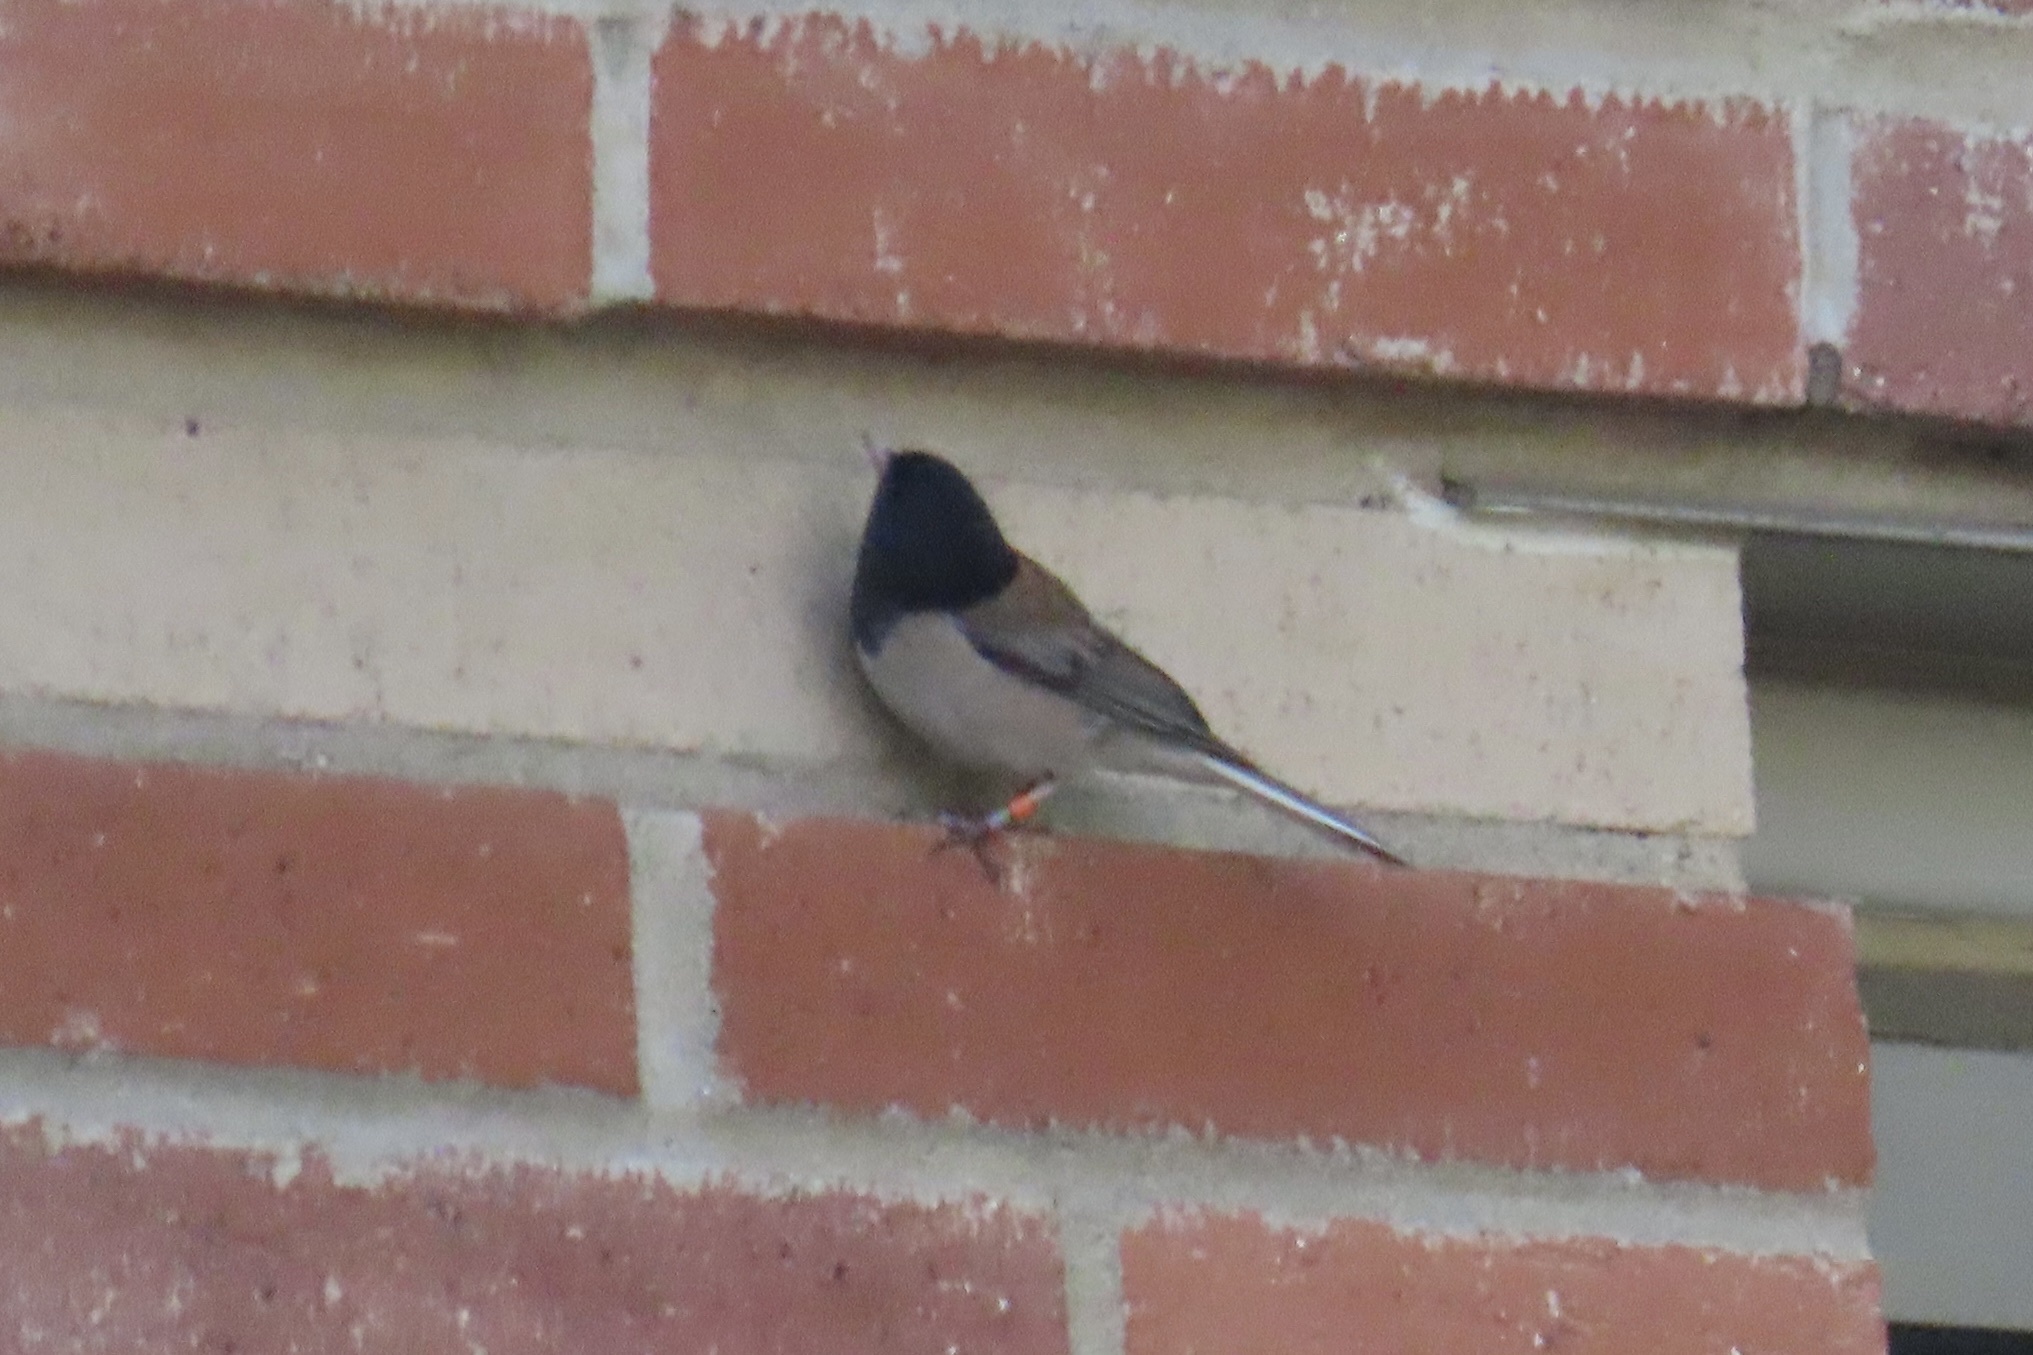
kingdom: Animalia
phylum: Chordata
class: Aves
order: Passeriformes
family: Passerellidae
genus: Junco
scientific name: Junco hyemalis
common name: Dark-eyed junco
